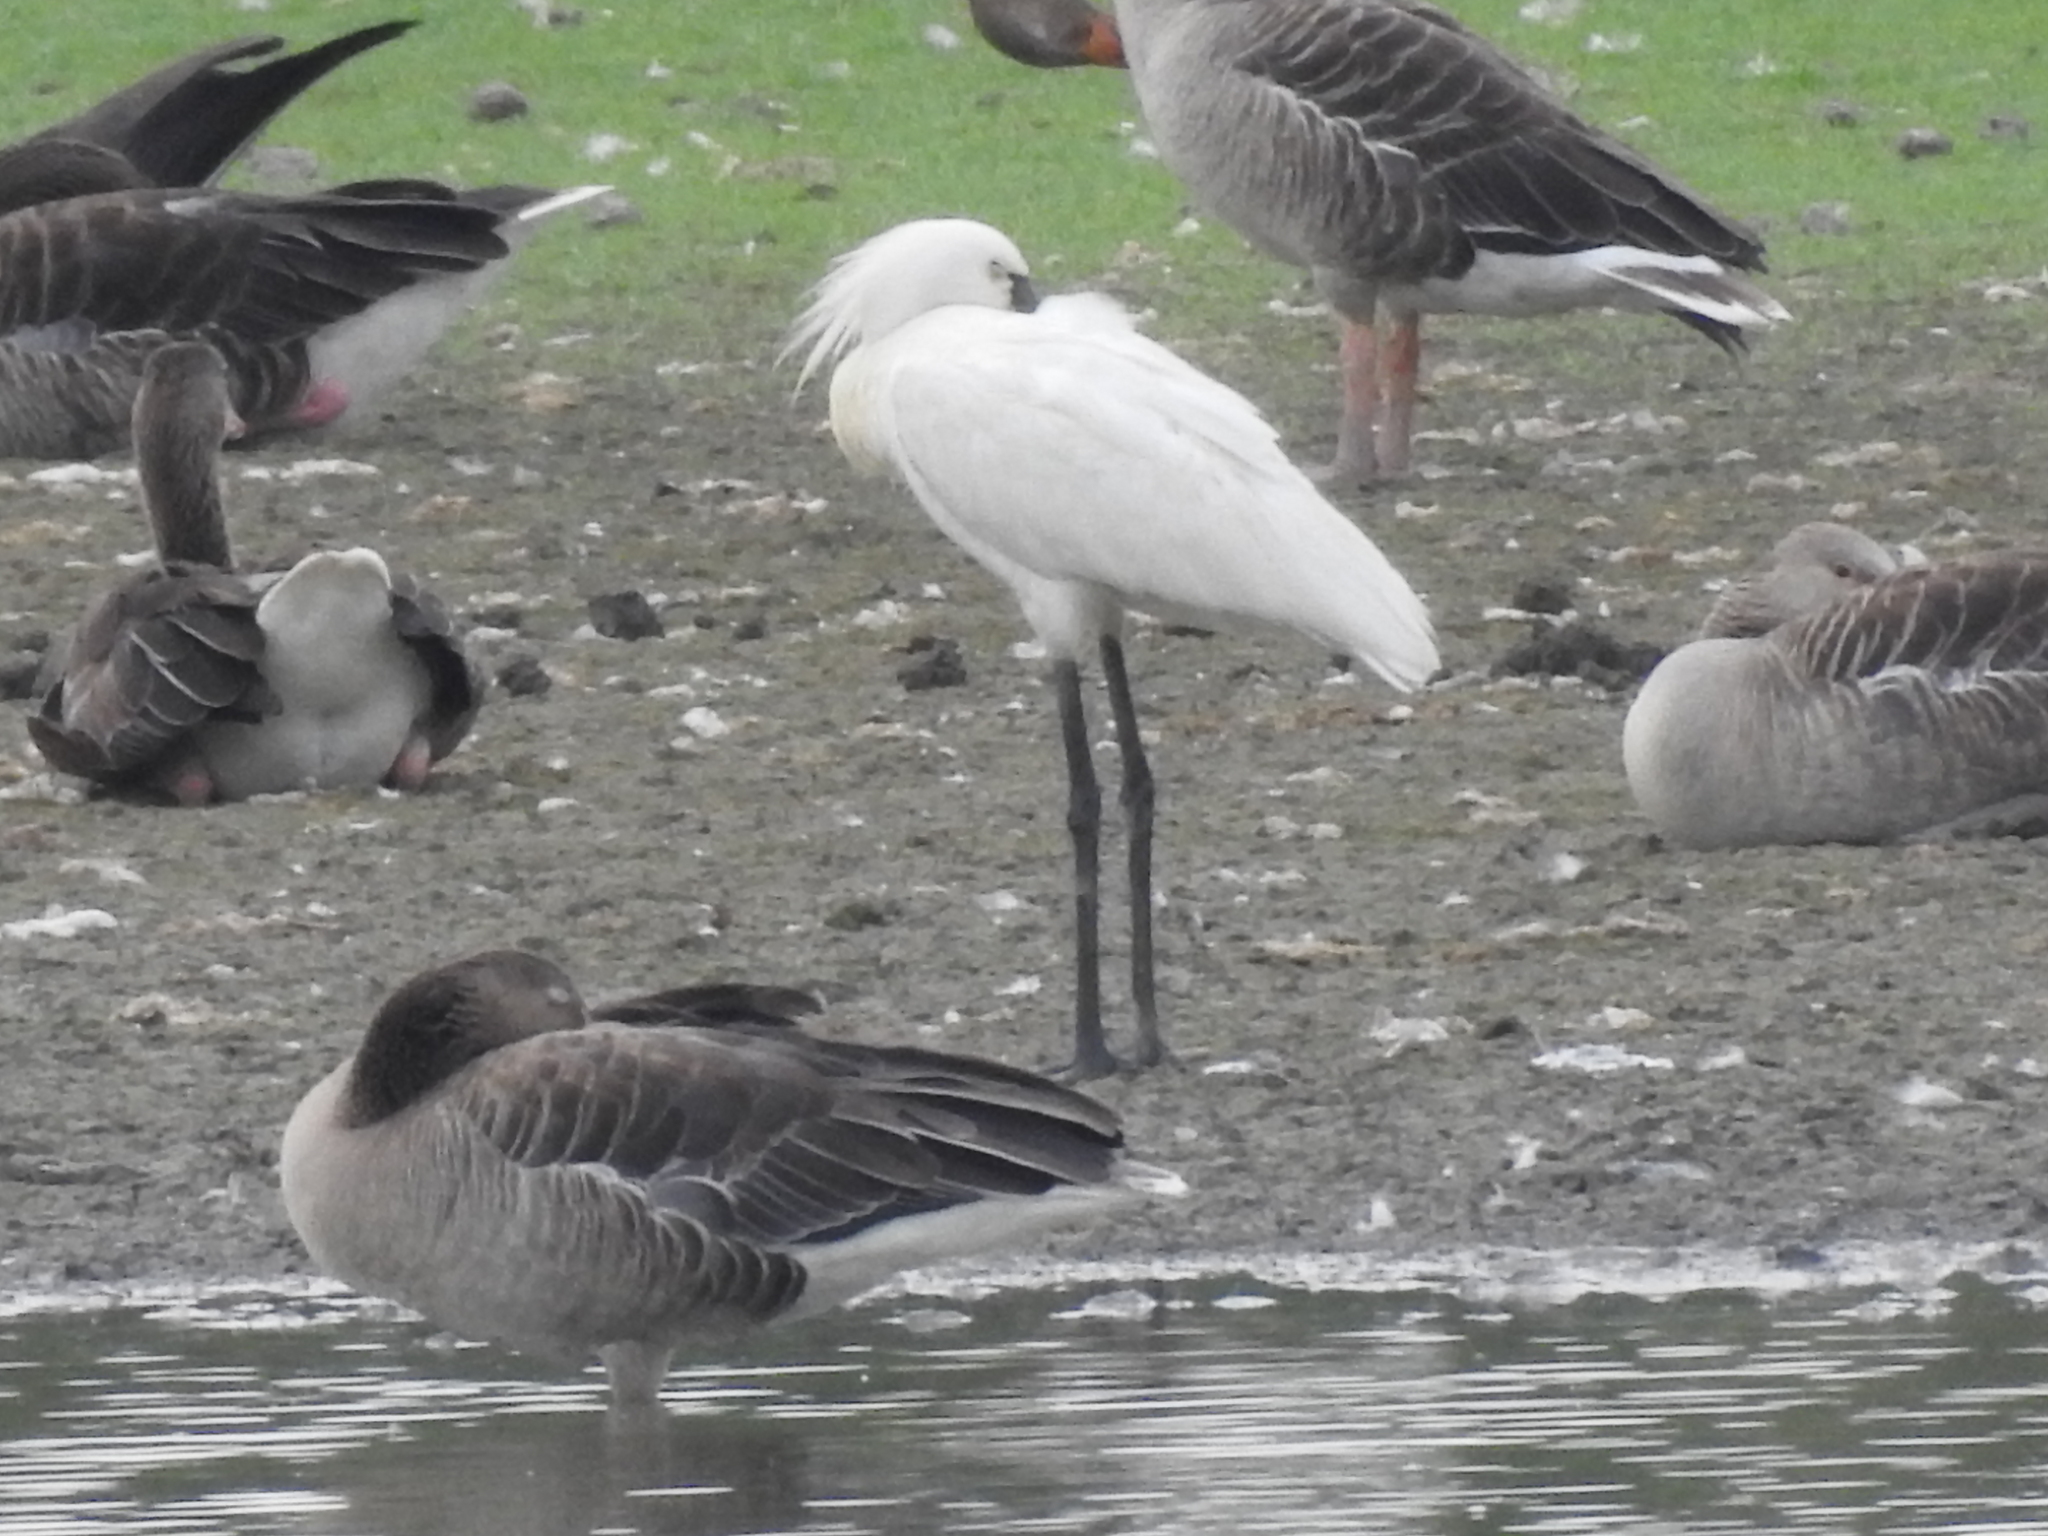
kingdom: Animalia
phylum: Chordata
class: Aves
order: Pelecaniformes
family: Threskiornithidae
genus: Platalea
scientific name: Platalea leucorodia
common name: Eurasian spoonbill
